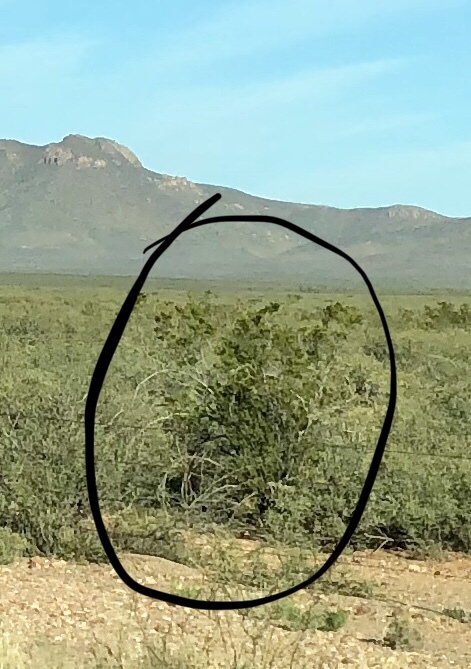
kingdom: Plantae
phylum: Tracheophyta
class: Magnoliopsida
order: Zygophyllales
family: Zygophyllaceae
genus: Larrea
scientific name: Larrea tridentata
